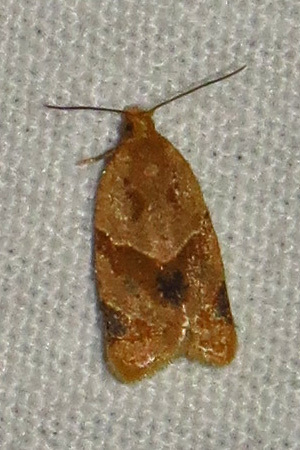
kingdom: Animalia
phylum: Arthropoda
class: Insecta
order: Lepidoptera
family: Tortricidae
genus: Clepsis
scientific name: Clepsis peritana
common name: Garden tortrix
